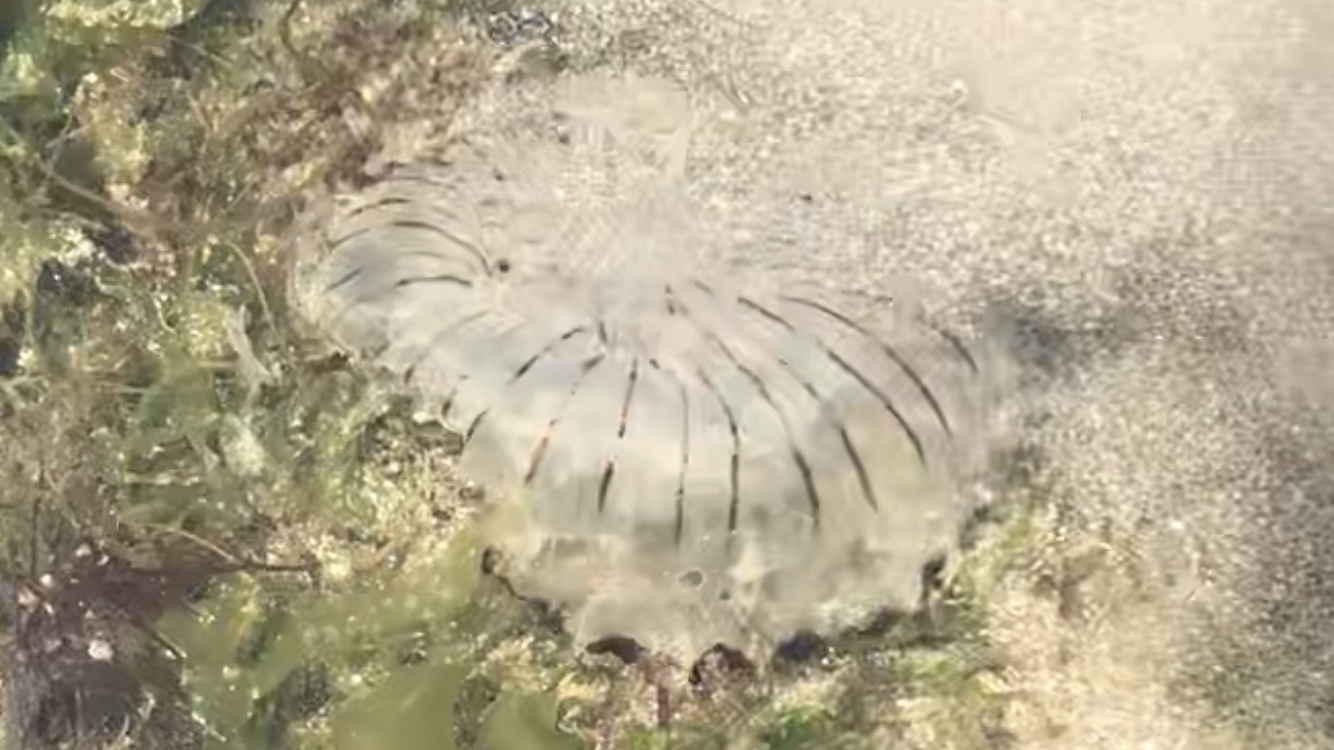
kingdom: Animalia
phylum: Cnidaria
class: Scyphozoa
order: Semaeostomeae
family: Pelagiidae
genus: Chrysaora
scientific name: Chrysaora hysoscella
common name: Compass jellyfish
